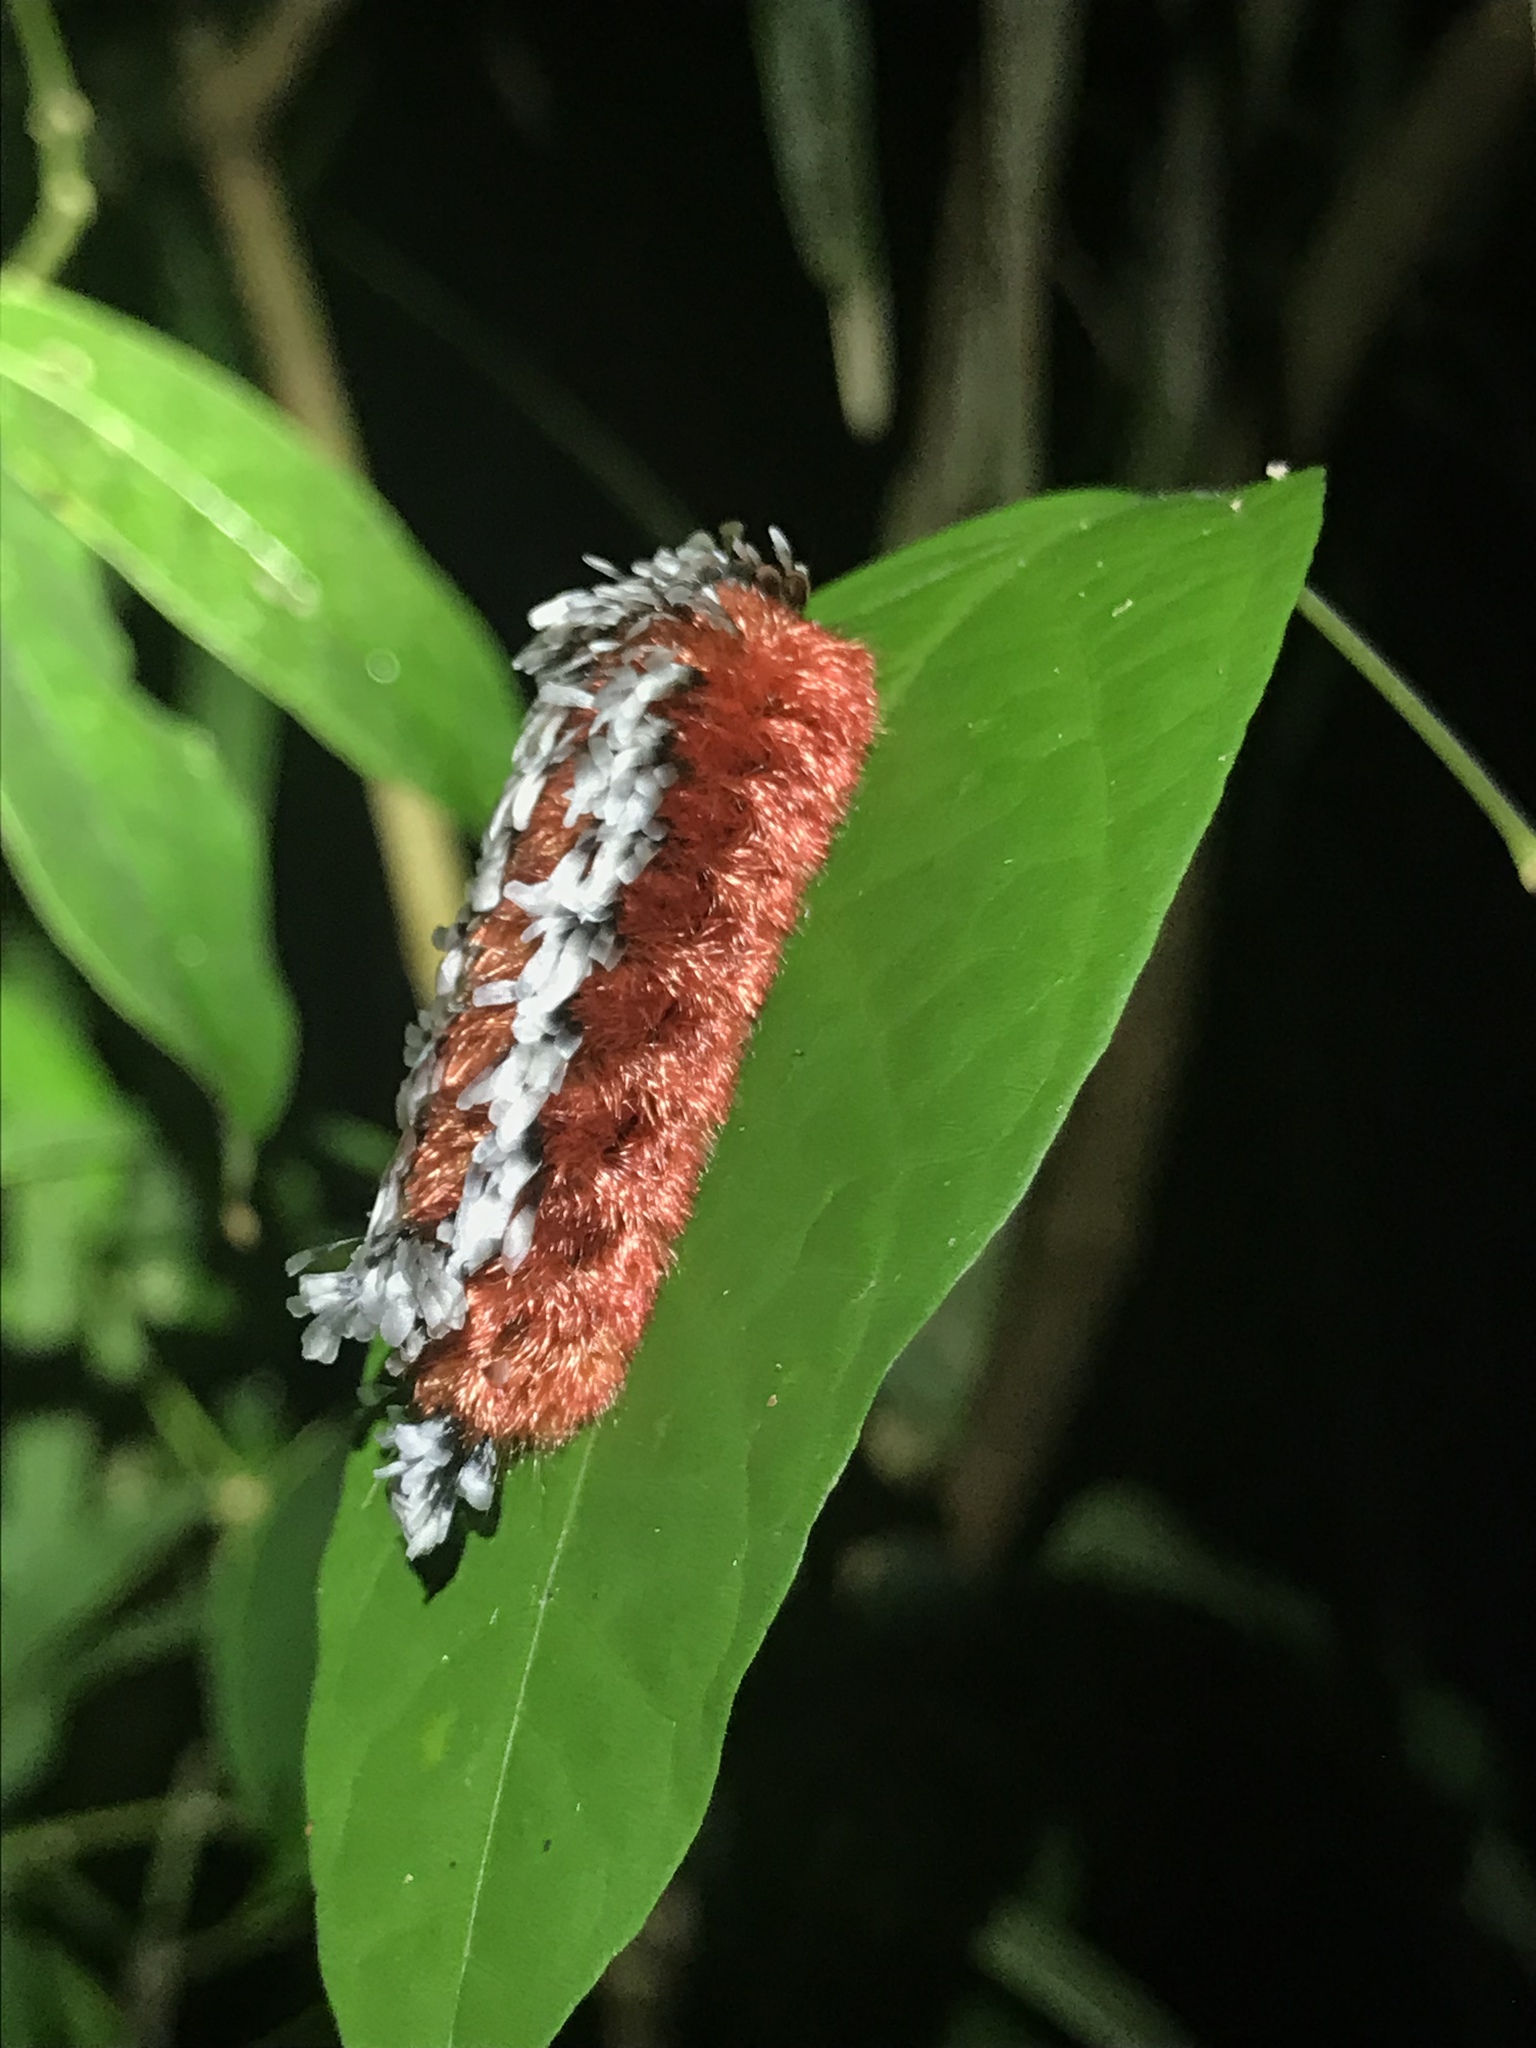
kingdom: Animalia
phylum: Arthropoda
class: Insecta
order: Lepidoptera
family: Bombycidae
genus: Prothysana
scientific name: Prothysana
